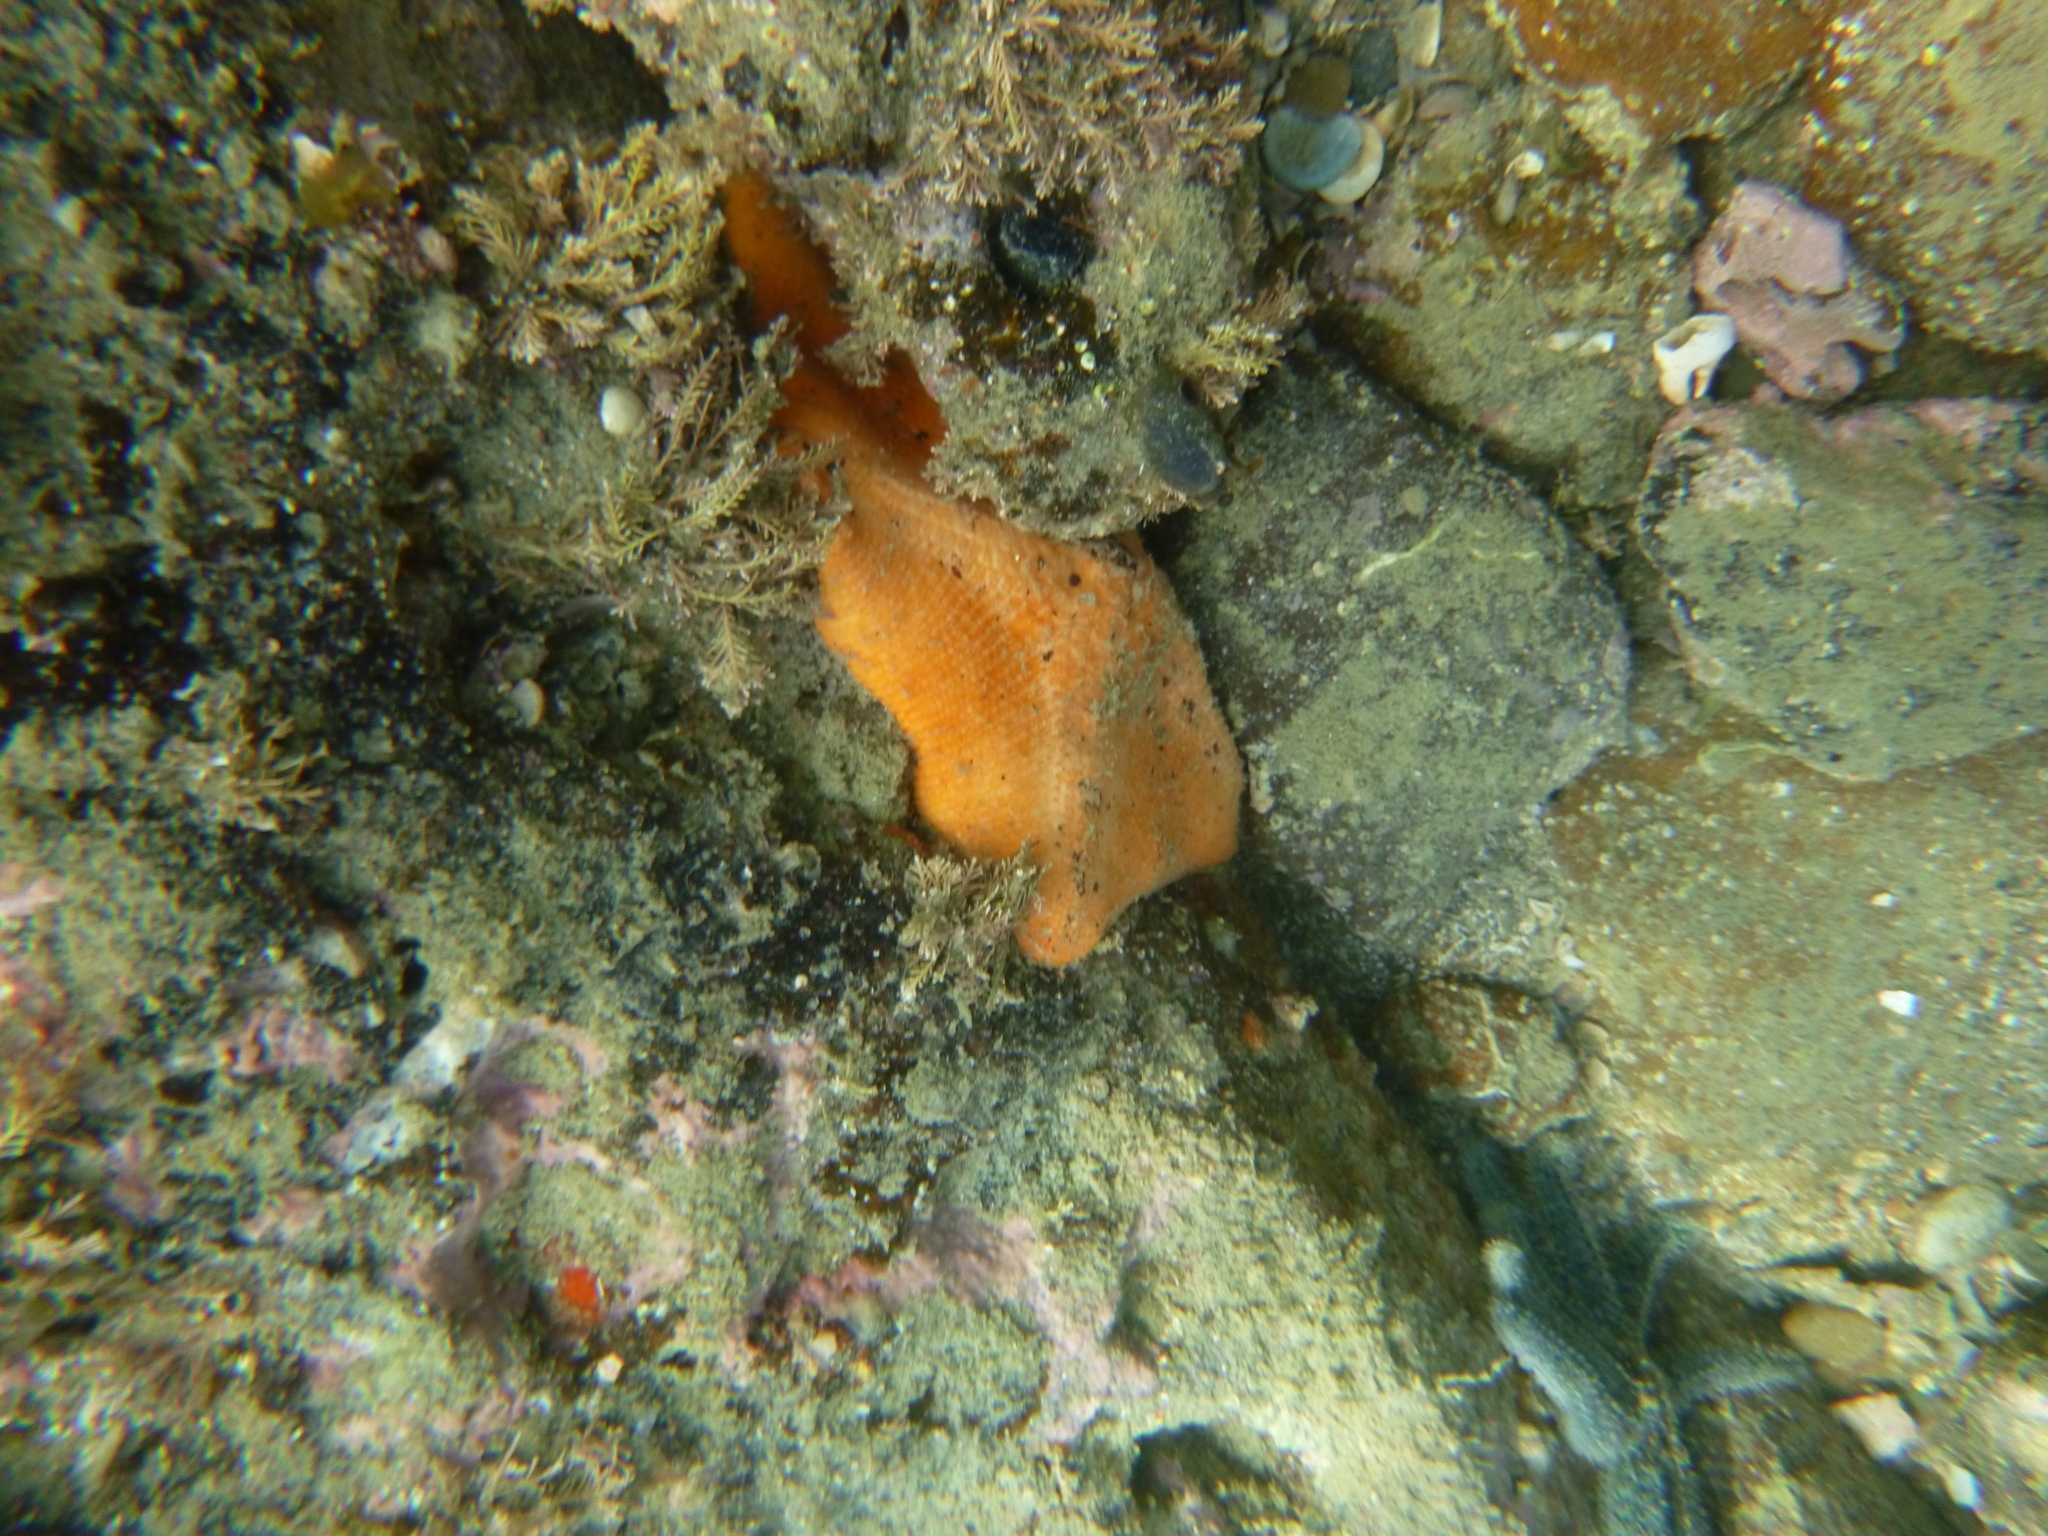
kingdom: Animalia
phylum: Echinodermata
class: Asteroidea
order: Valvatida
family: Asterinidae
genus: Stegnaster
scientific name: Stegnaster inflatus
